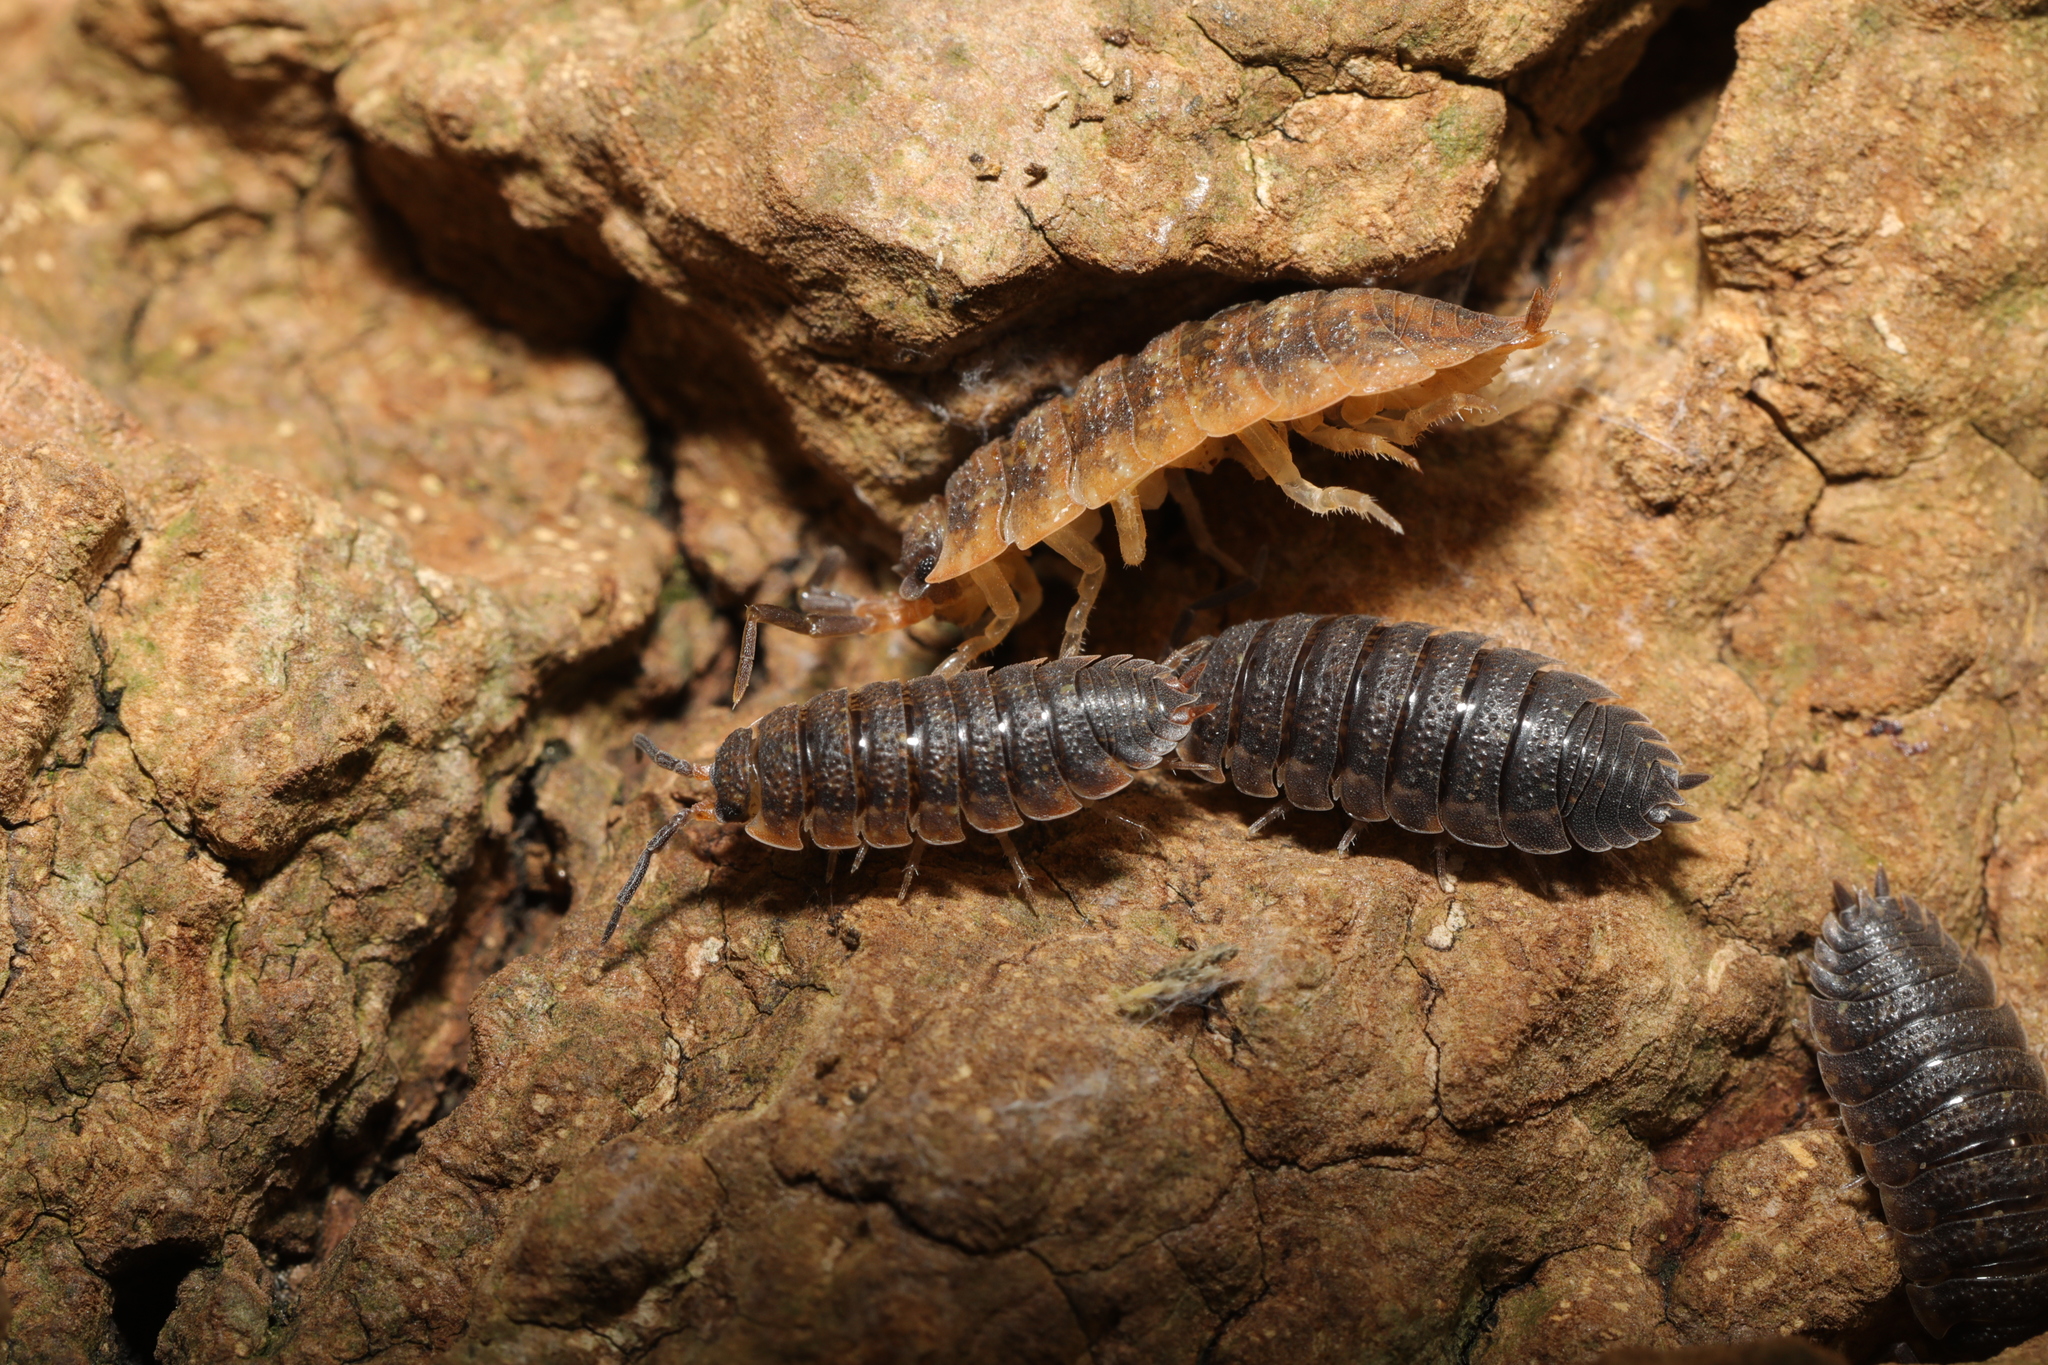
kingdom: Animalia
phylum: Arthropoda
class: Malacostraca
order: Isopoda
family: Porcellionidae
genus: Porcellio
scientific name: Porcellio scaber
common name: Common rough woodlouse
